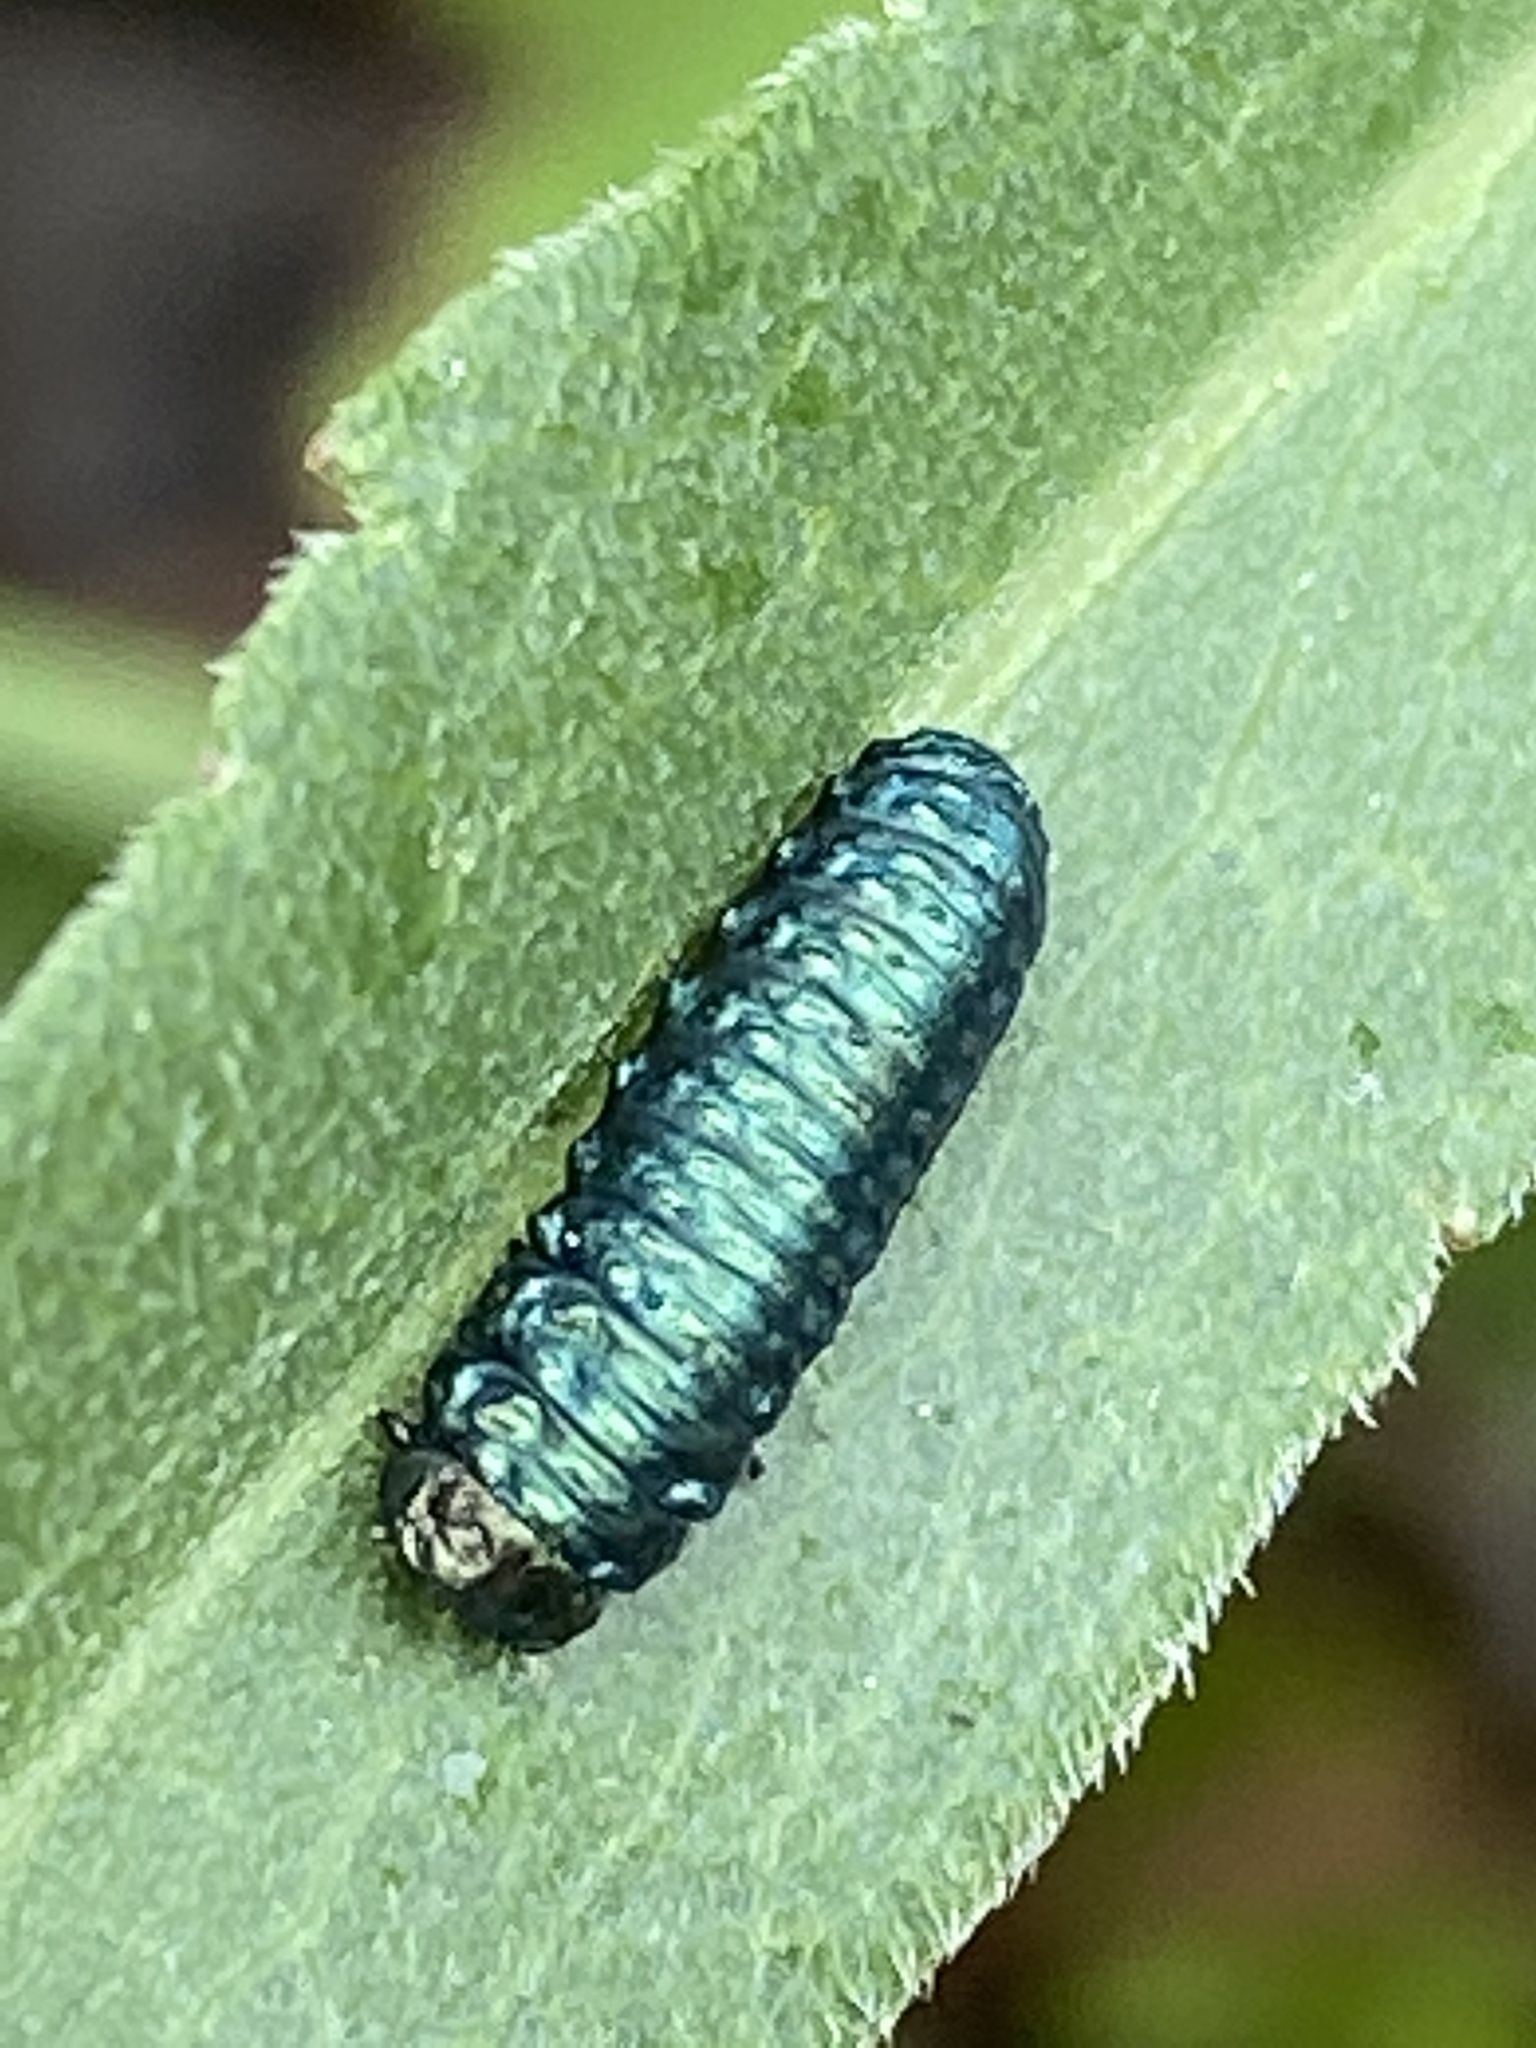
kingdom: Animalia
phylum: Arthropoda
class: Insecta
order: Coleoptera
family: Chrysomelidae
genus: Trirhabda
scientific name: Trirhabda flavolimbata
